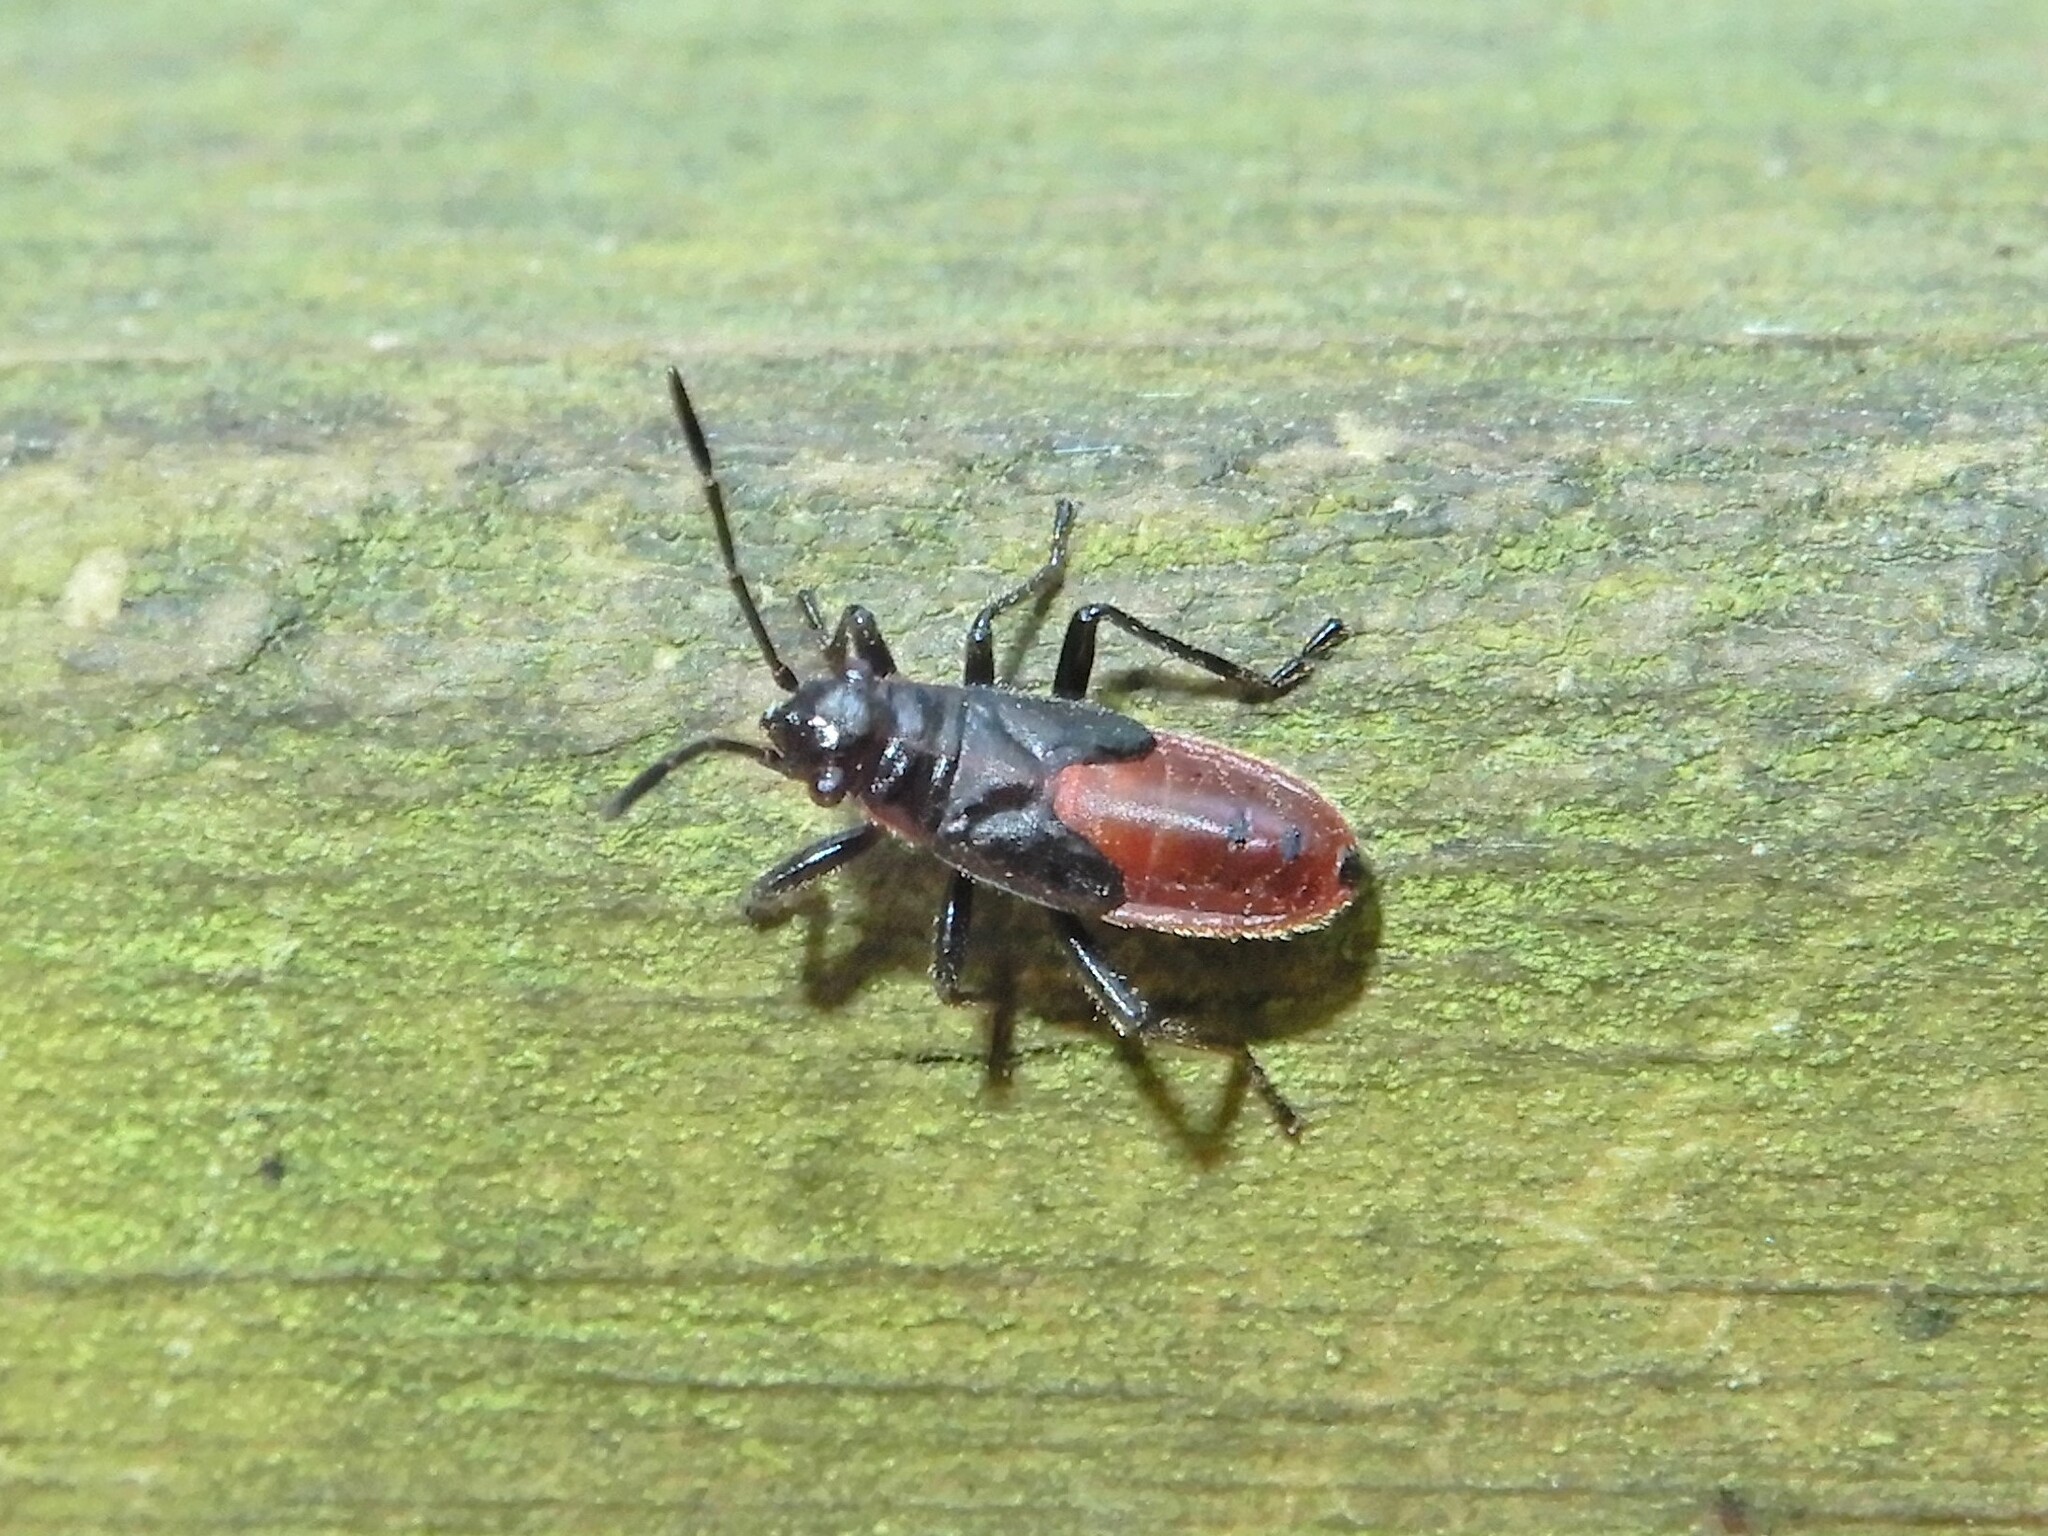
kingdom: Animalia
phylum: Arthropoda
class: Insecta
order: Hemiptera
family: Lygaeidae
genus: Arocatus
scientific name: Arocatus rusticus
